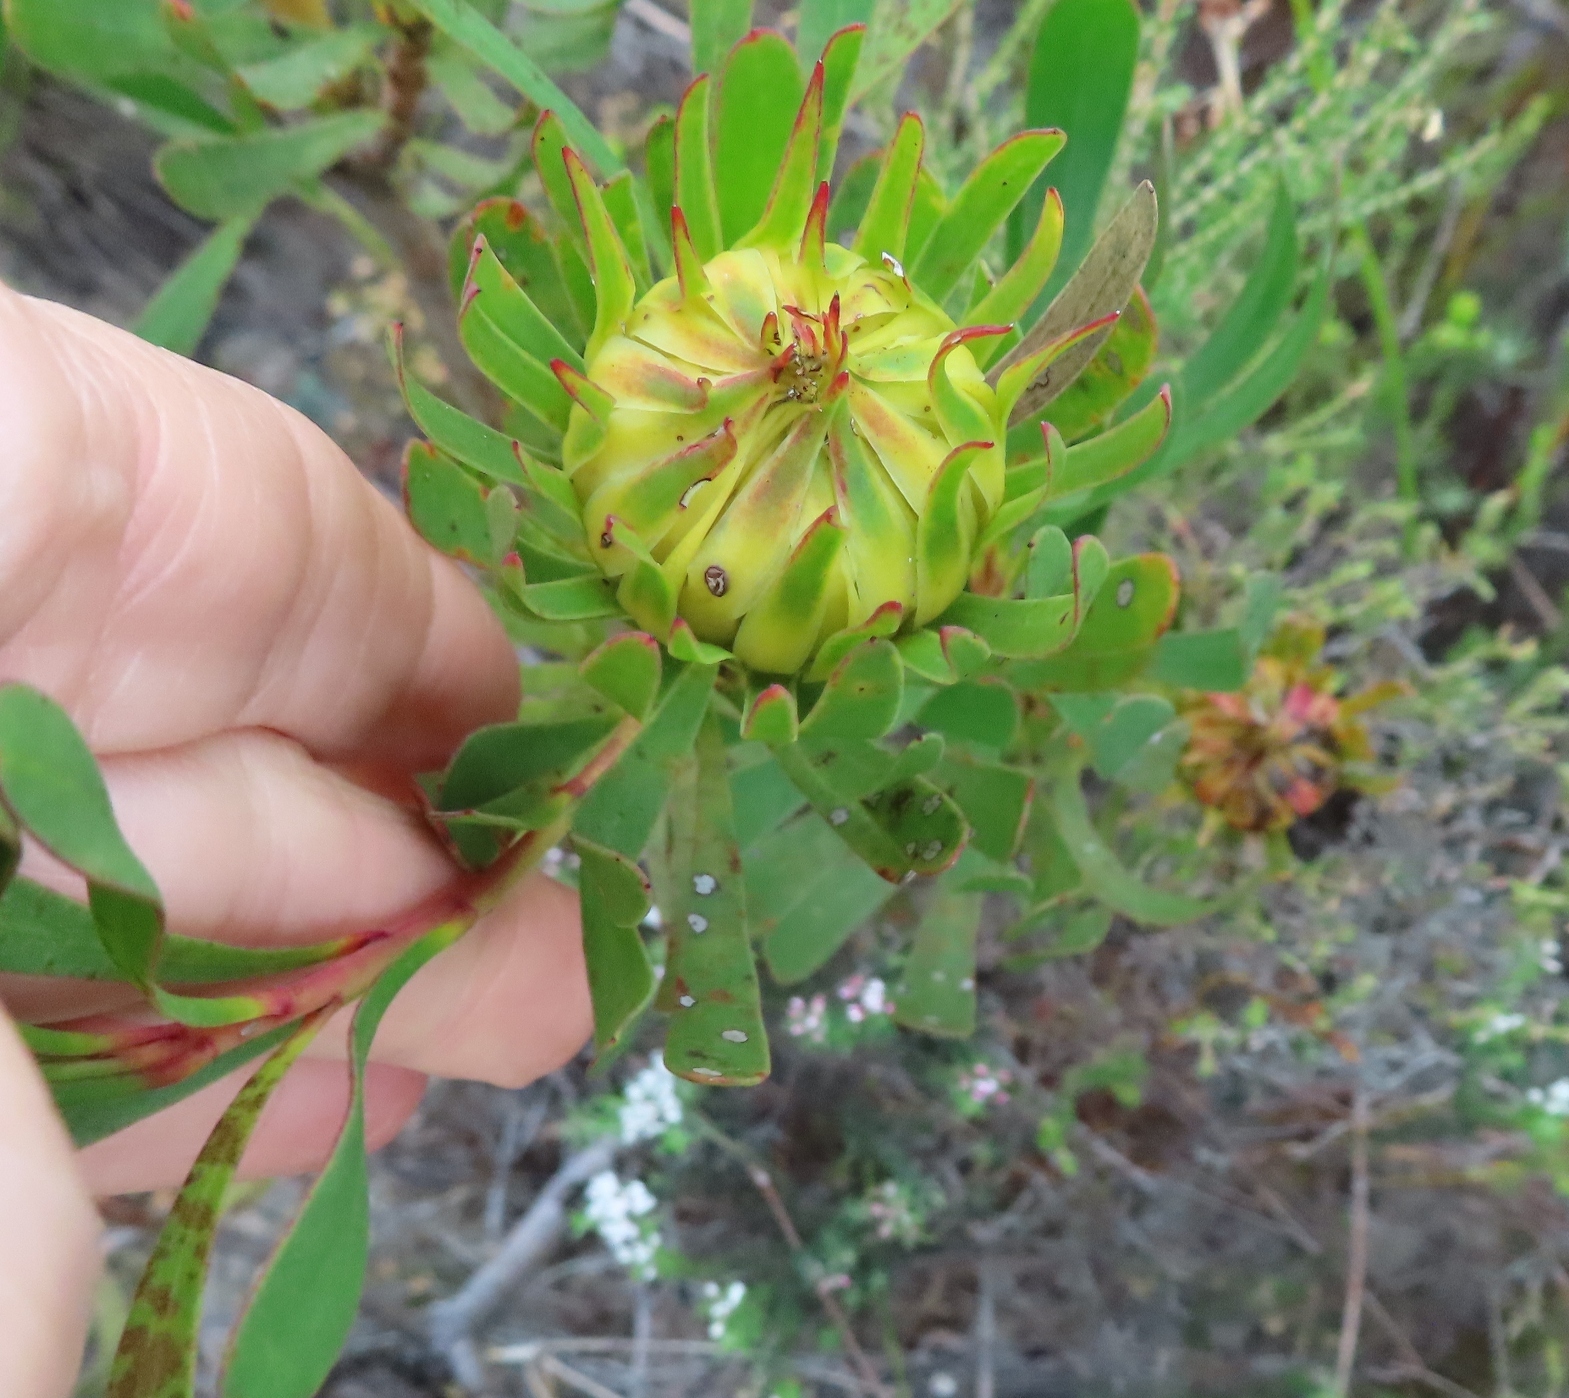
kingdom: Plantae
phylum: Tracheophyta
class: Magnoliopsida
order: Proteales
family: Proteaceae
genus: Aulax
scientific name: Aulax umbellata
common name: Broad-leaf featherbush
